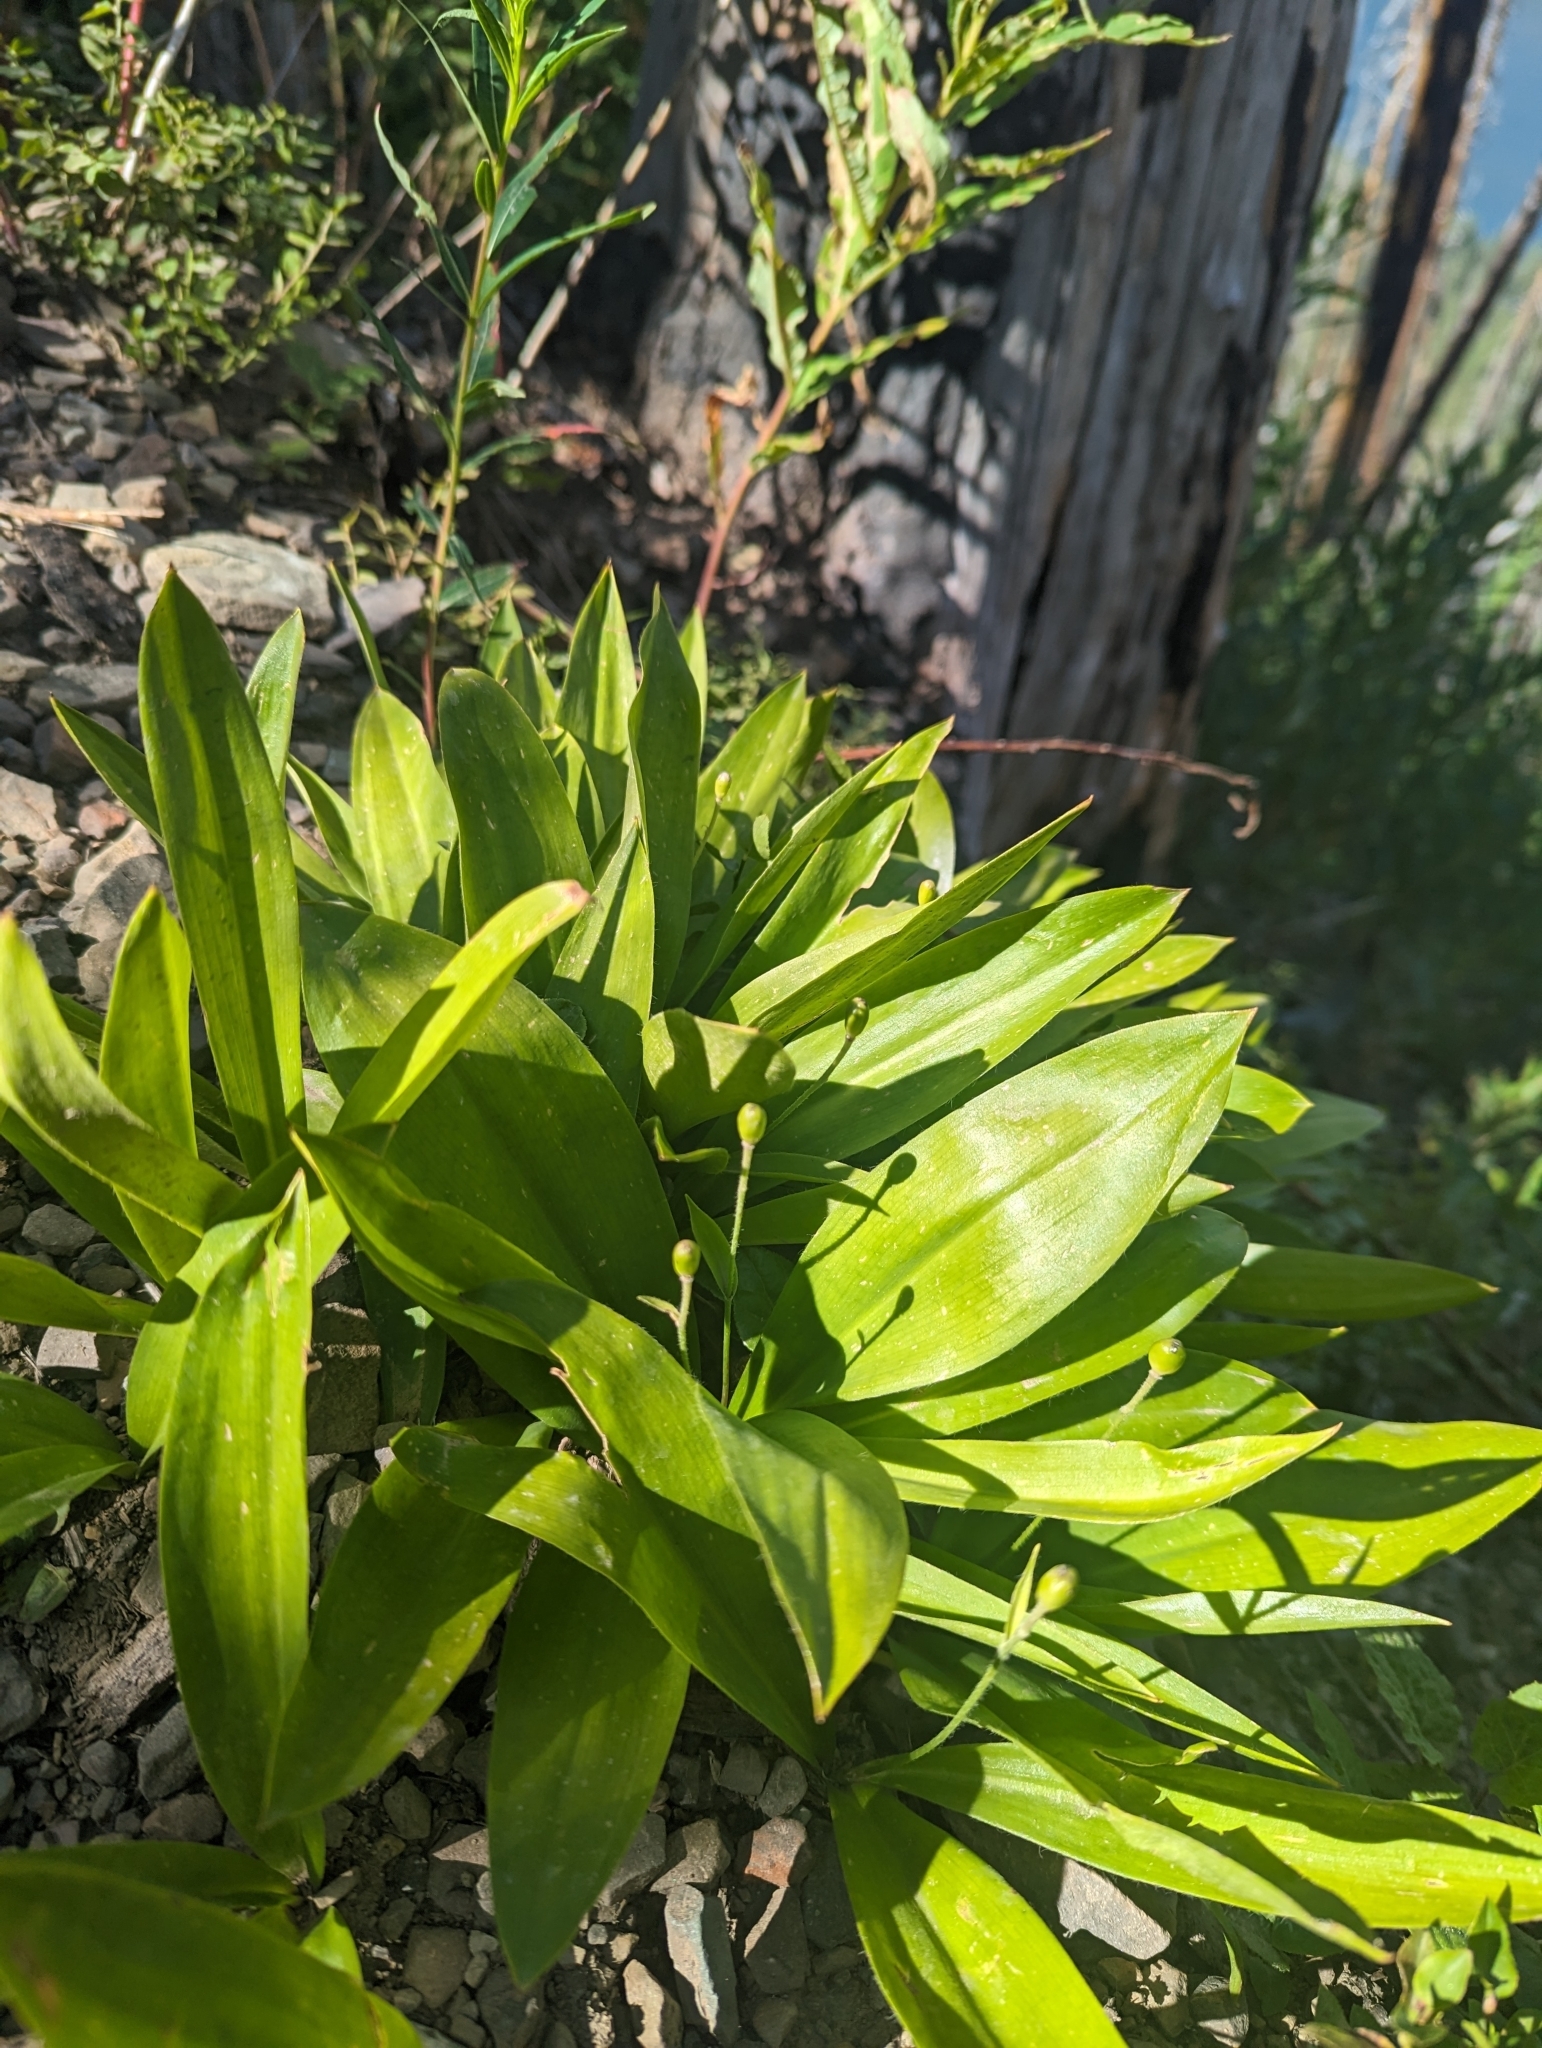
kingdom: Plantae
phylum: Tracheophyta
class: Liliopsida
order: Liliales
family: Liliaceae
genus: Clintonia
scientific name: Clintonia uniflora
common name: Queen's cup
